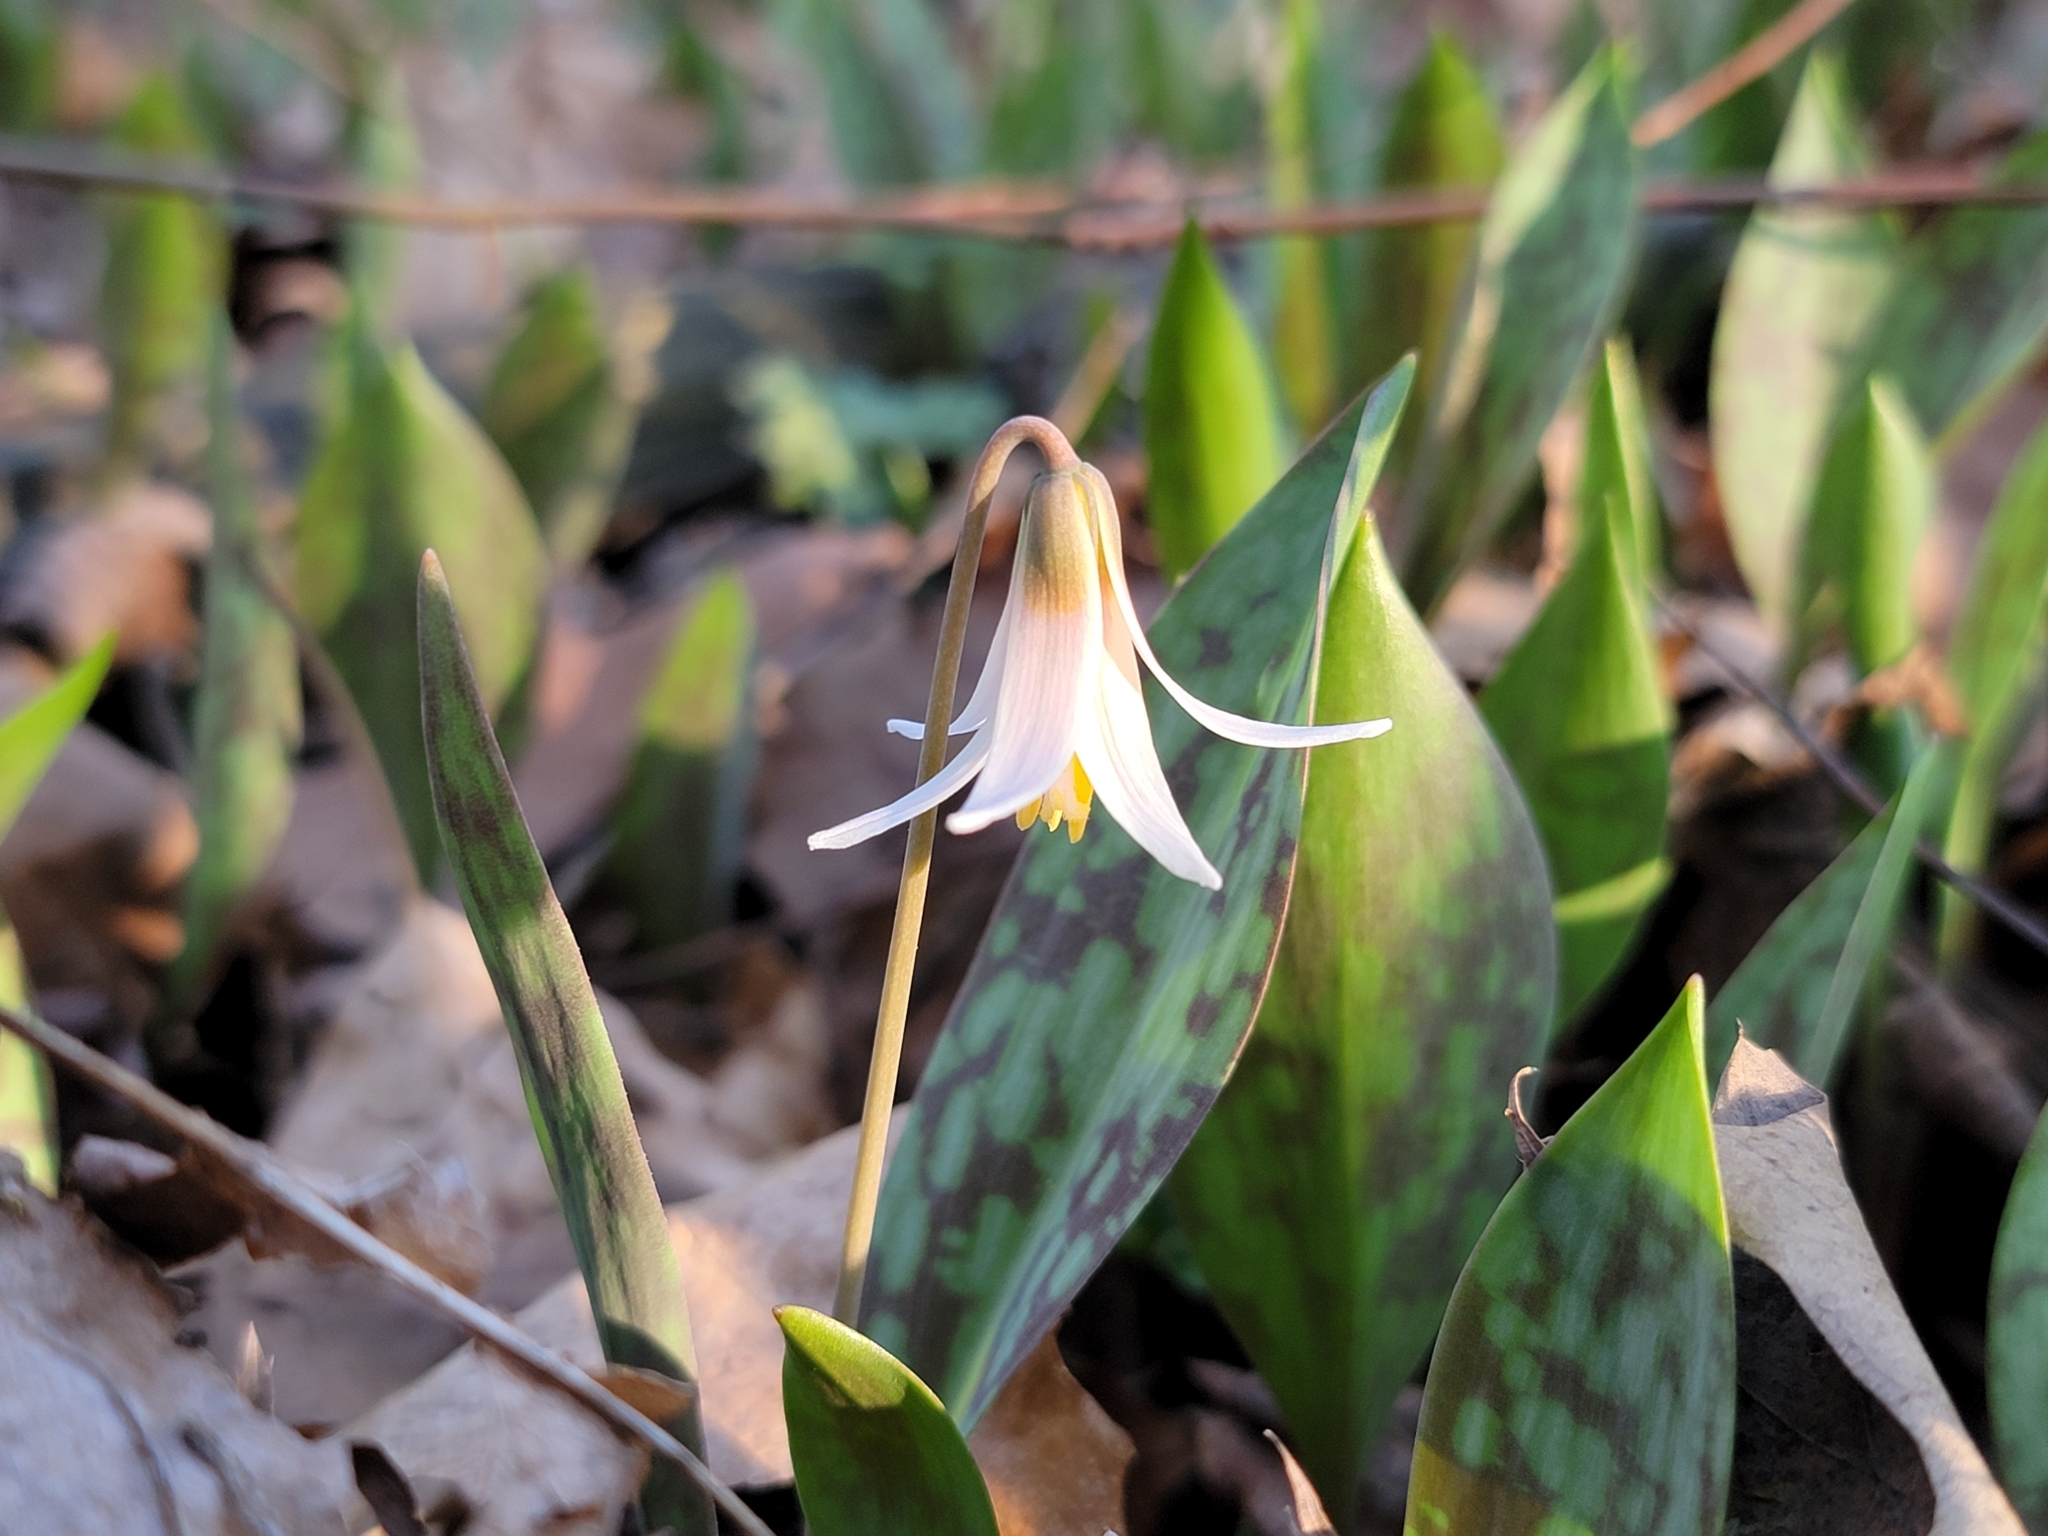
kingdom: Plantae
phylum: Tracheophyta
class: Liliopsida
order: Liliales
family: Liliaceae
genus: Erythronium
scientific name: Erythronium albidum
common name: White trout-lily
